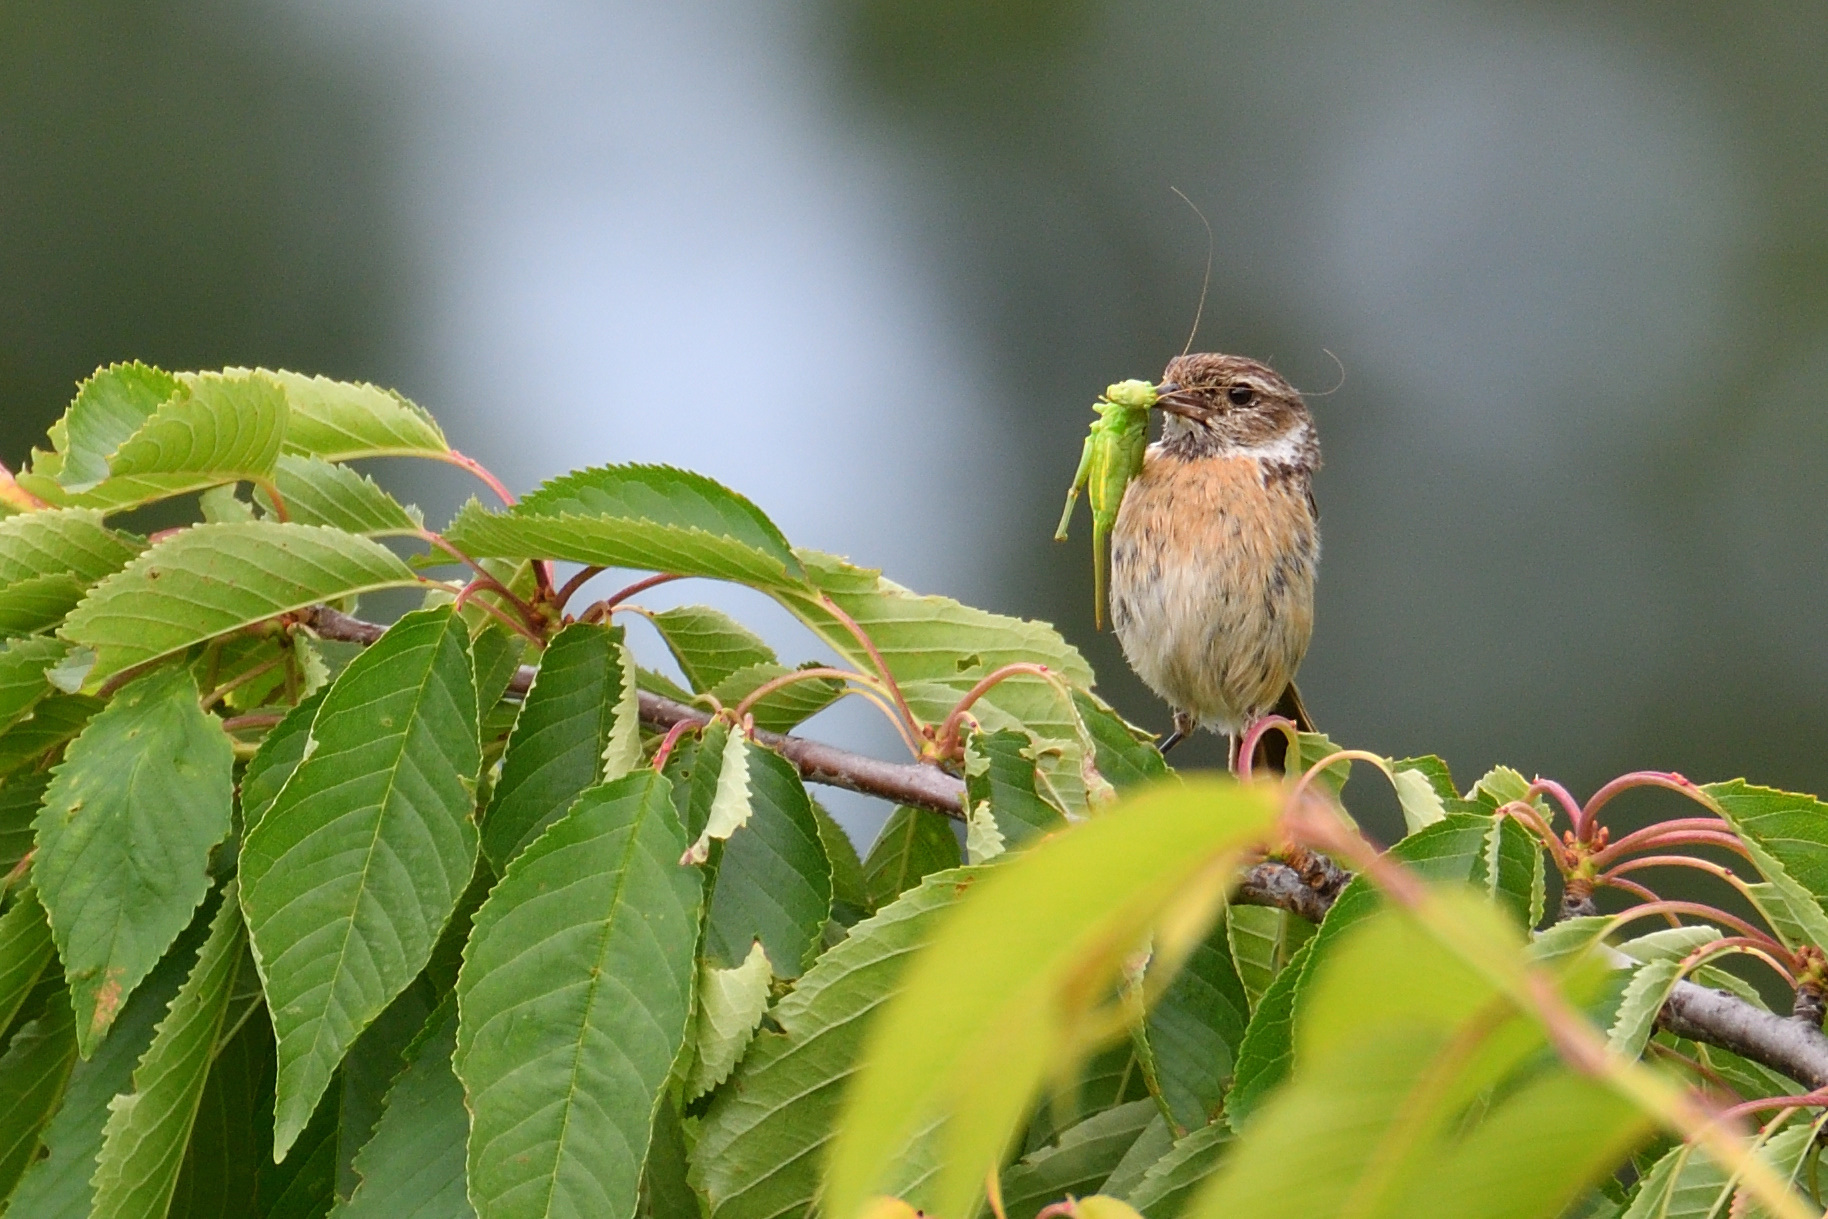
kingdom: Animalia
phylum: Chordata
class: Aves
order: Passeriformes
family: Muscicapidae
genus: Saxicola
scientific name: Saxicola rubicola
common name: European stonechat
